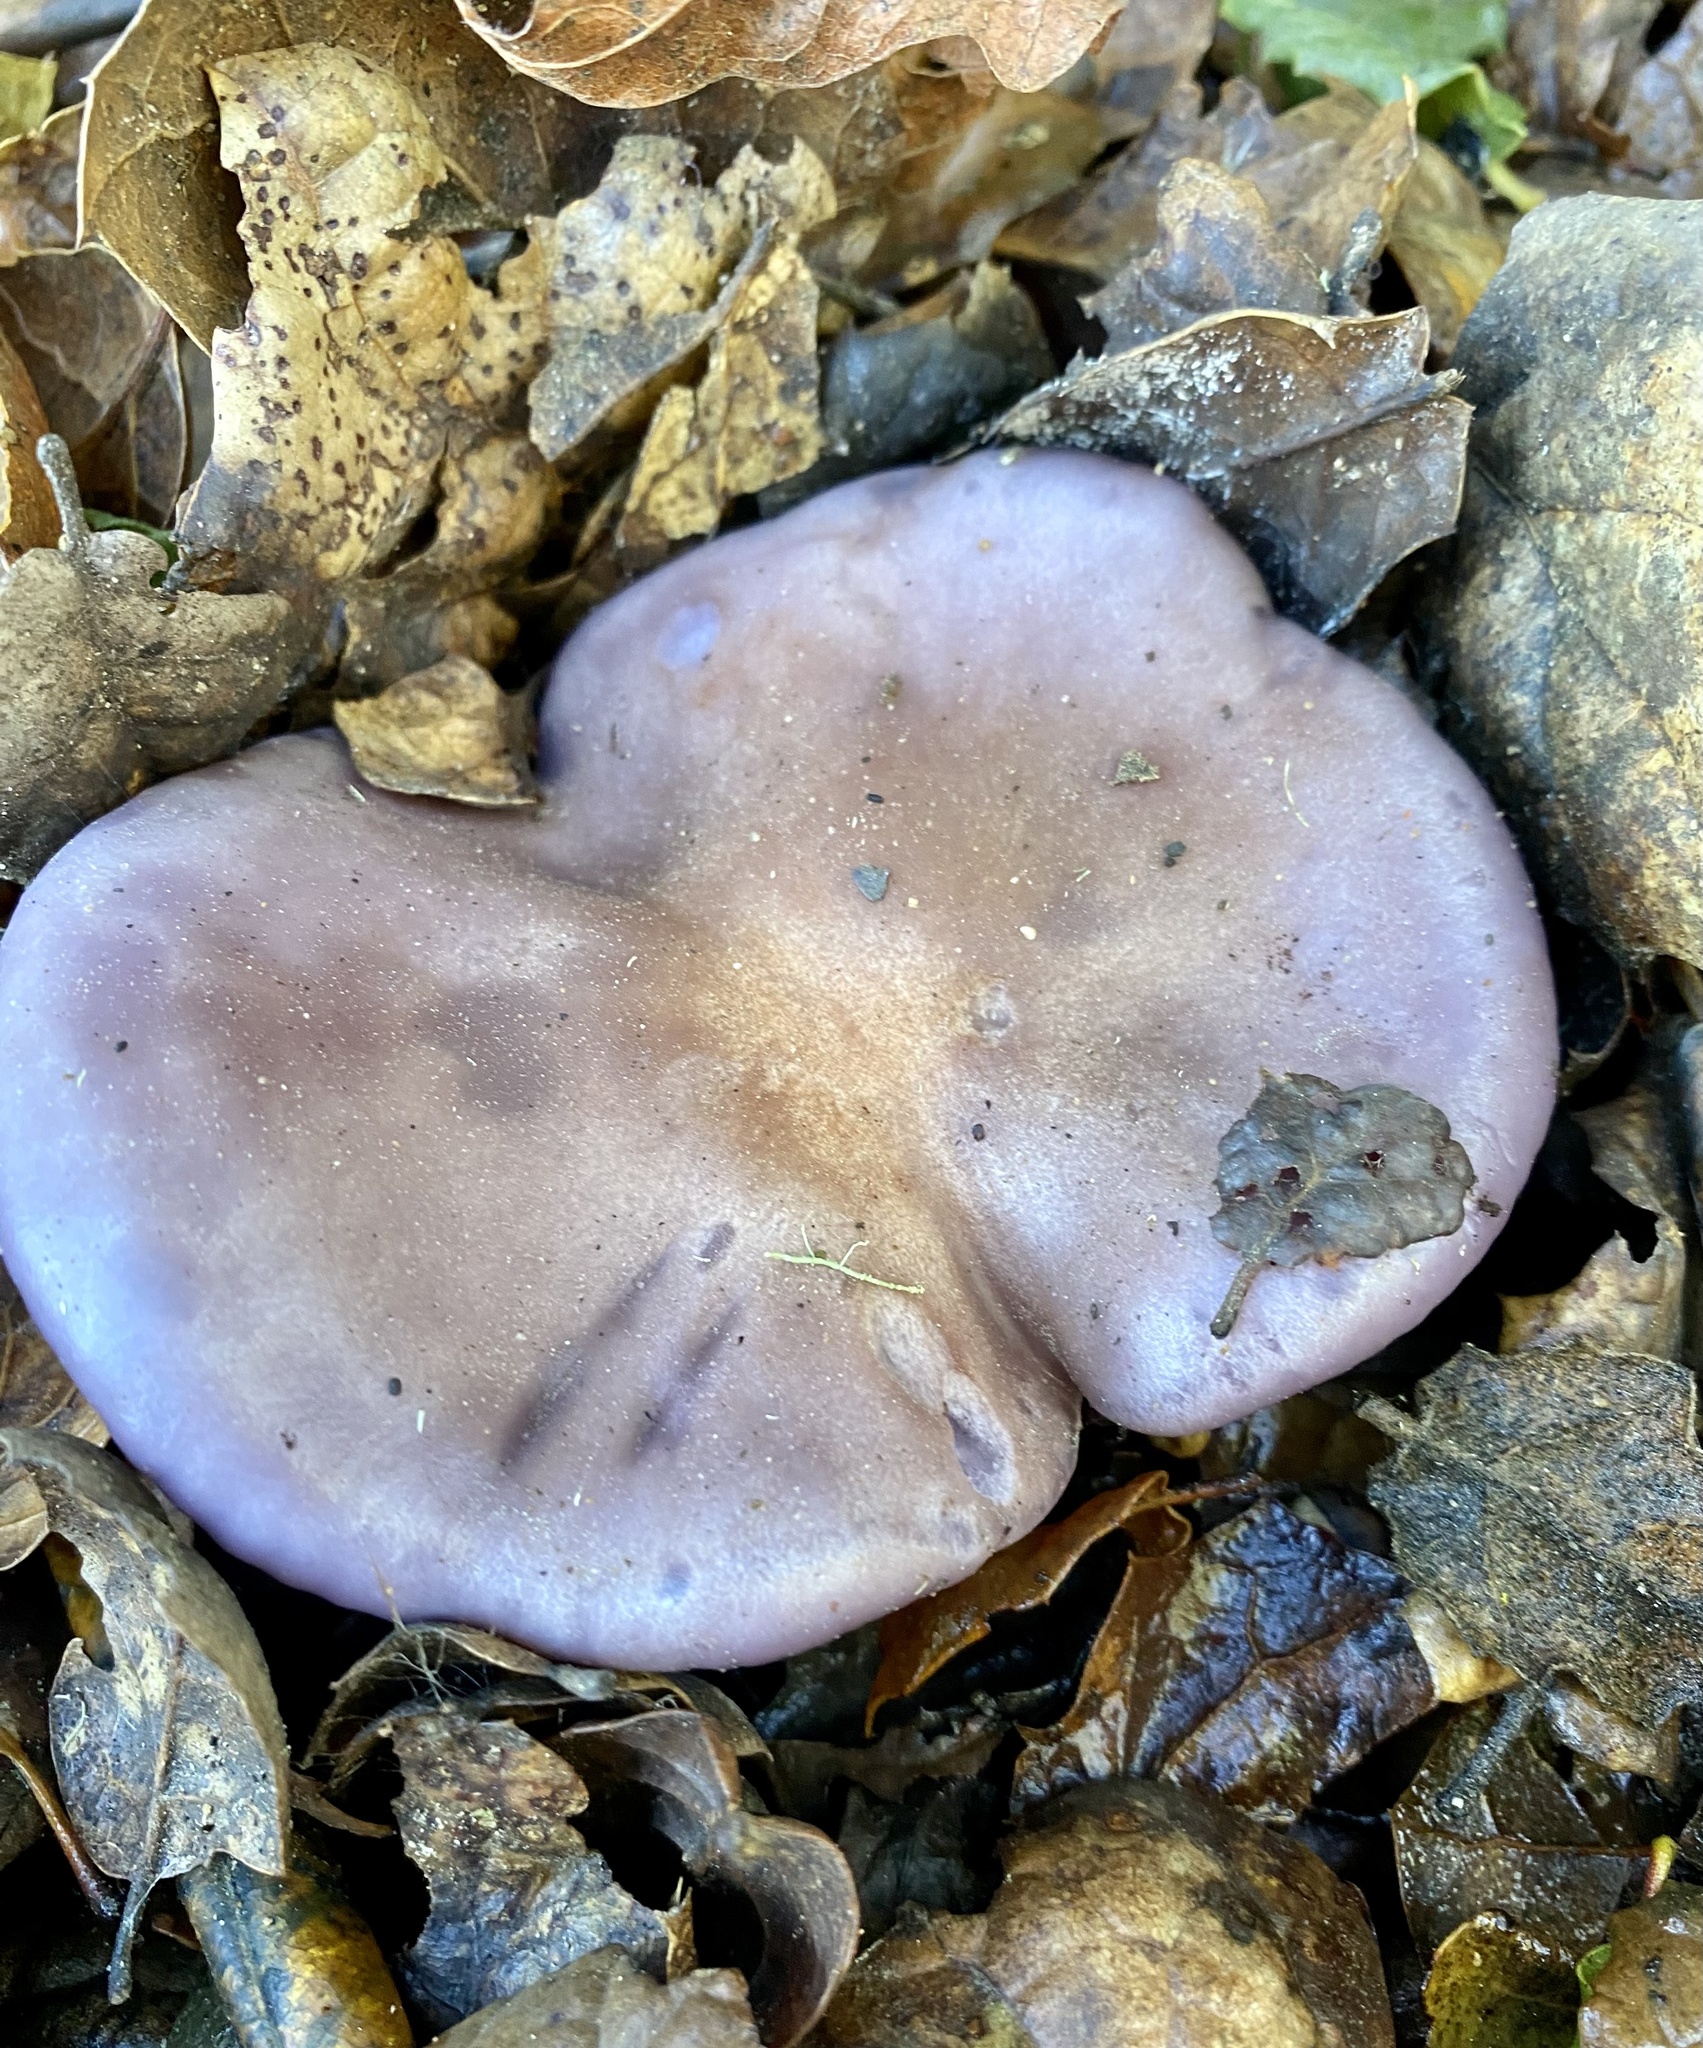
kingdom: Fungi
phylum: Basidiomycota
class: Agaricomycetes
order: Agaricales
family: Tricholomataceae
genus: Collybia
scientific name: Collybia
